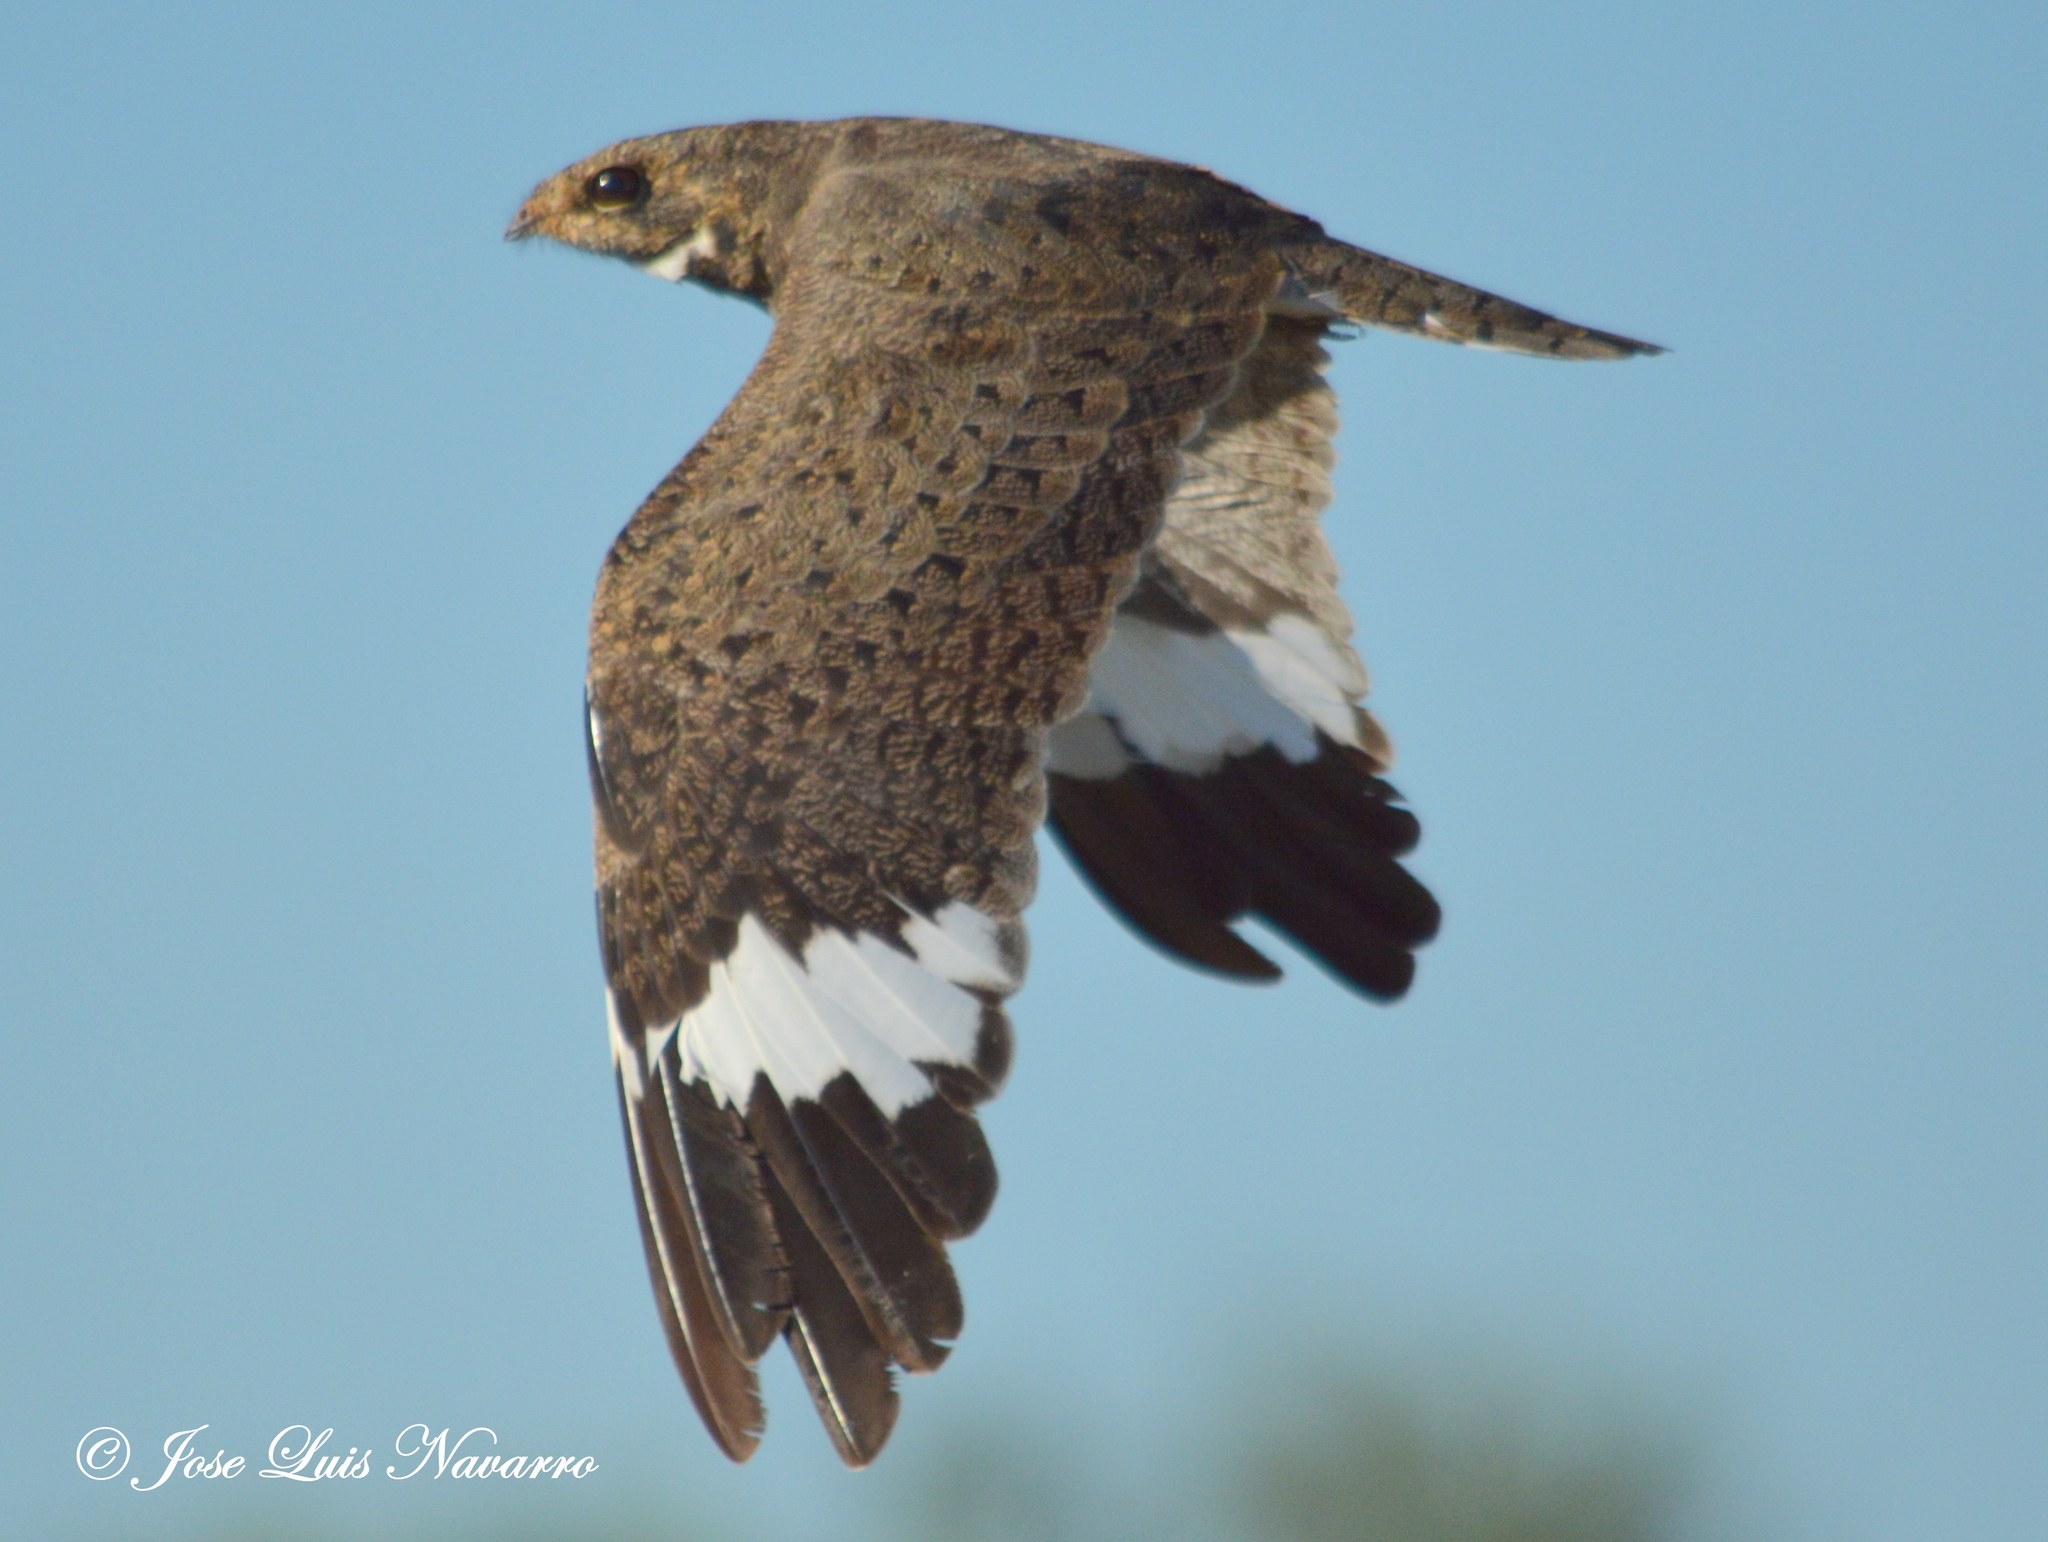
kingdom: Animalia
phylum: Chordata
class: Aves
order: Caprimulgiformes
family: Caprimulgidae
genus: Chordeiles
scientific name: Chordeiles nacunda
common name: Nacunda nighthawk
